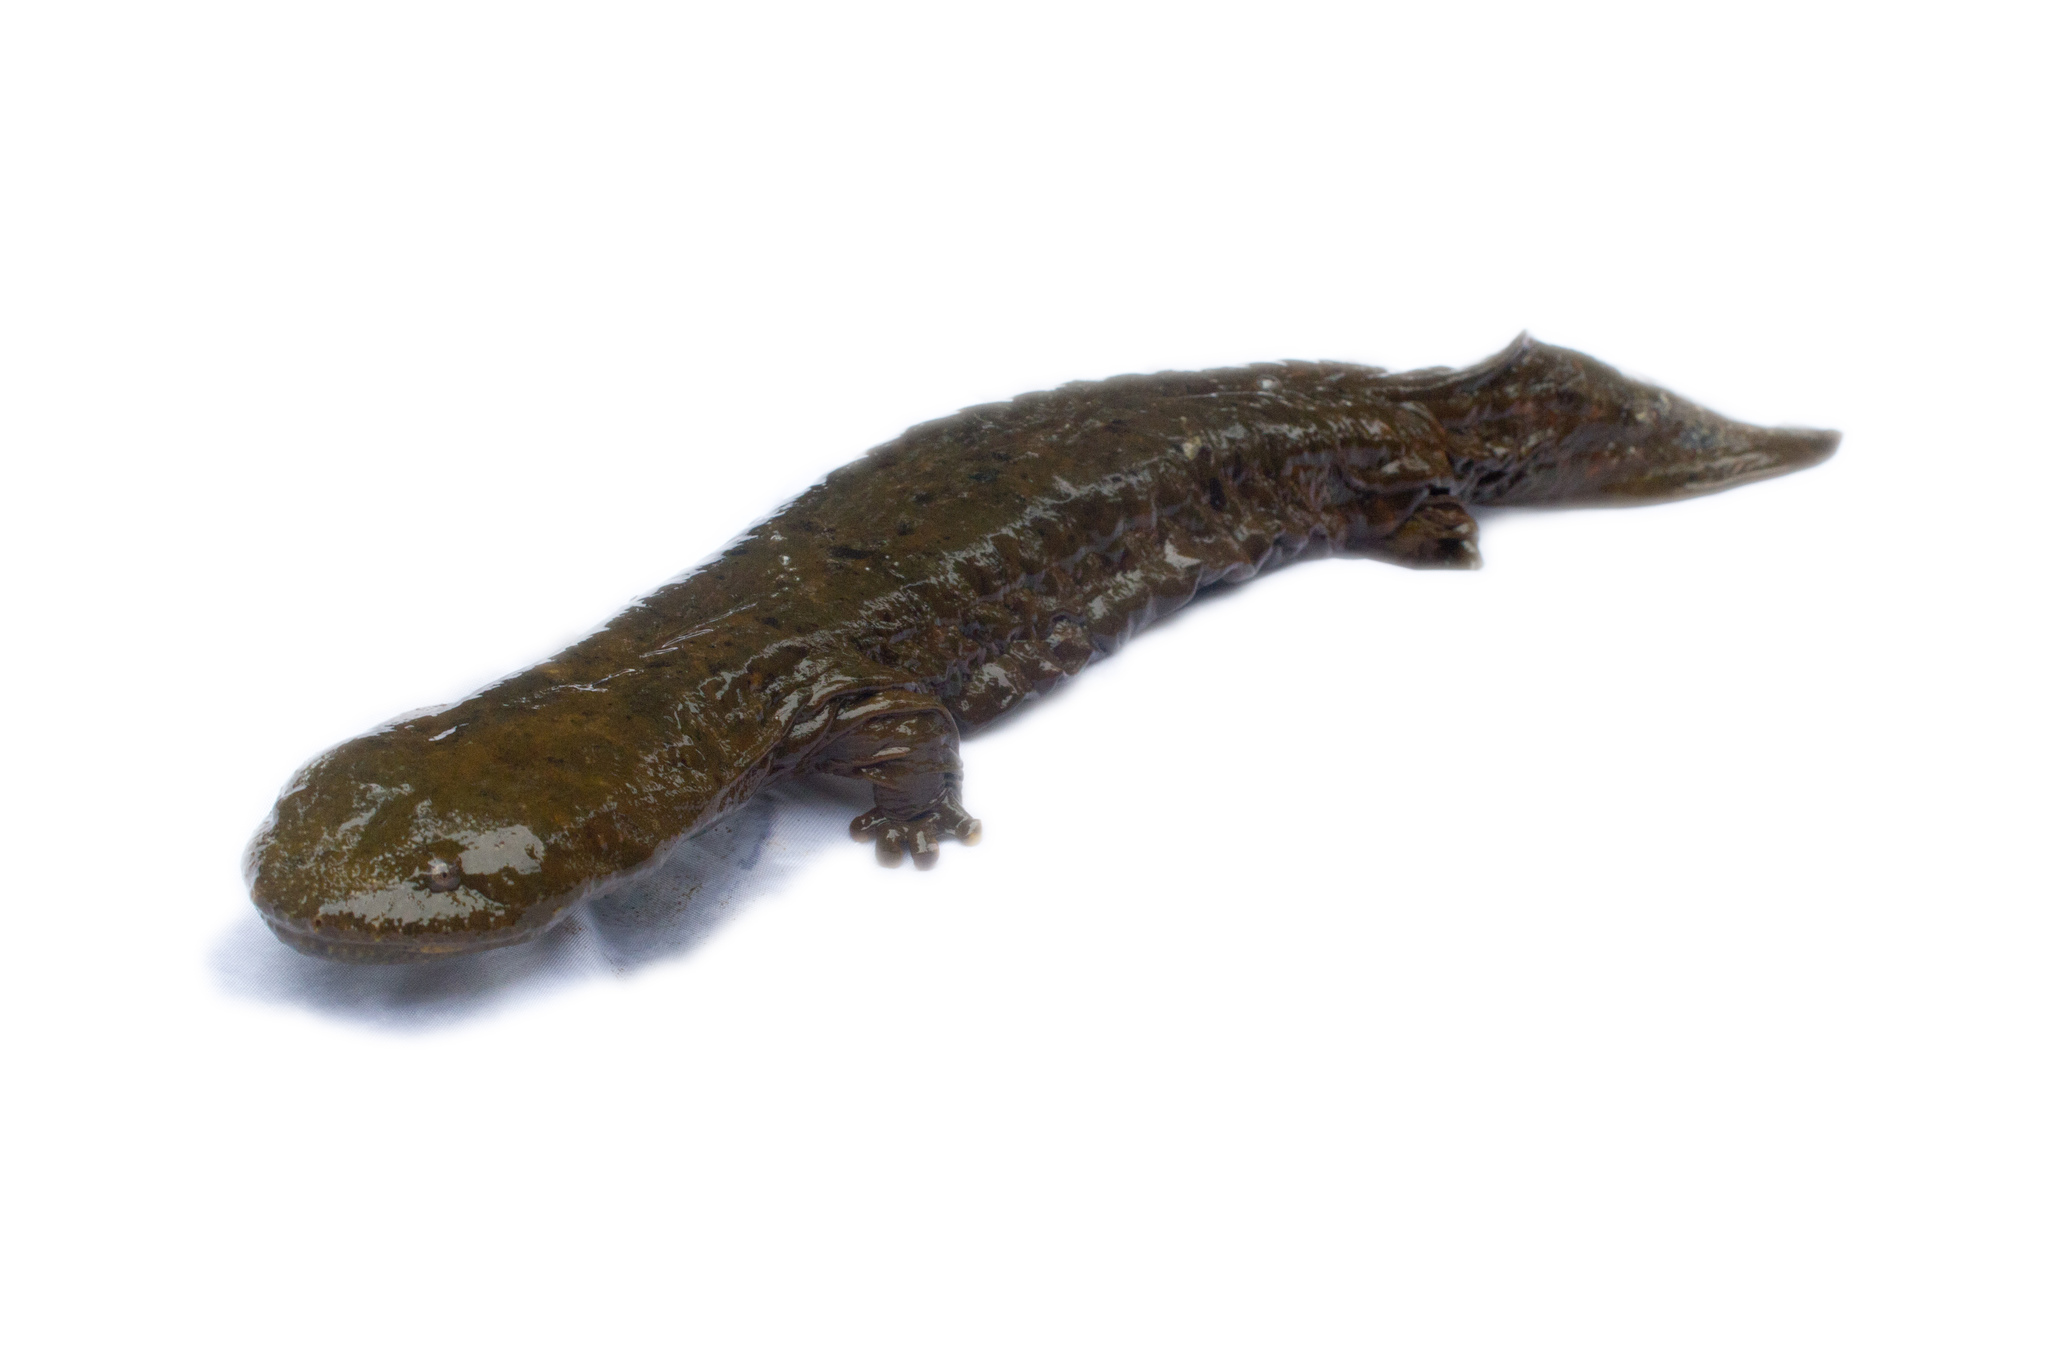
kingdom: Animalia
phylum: Chordata
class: Amphibia
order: Caudata
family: Cryptobranchidae
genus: Cryptobranchus
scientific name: Cryptobranchus alleganiensis
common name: Hellbender
